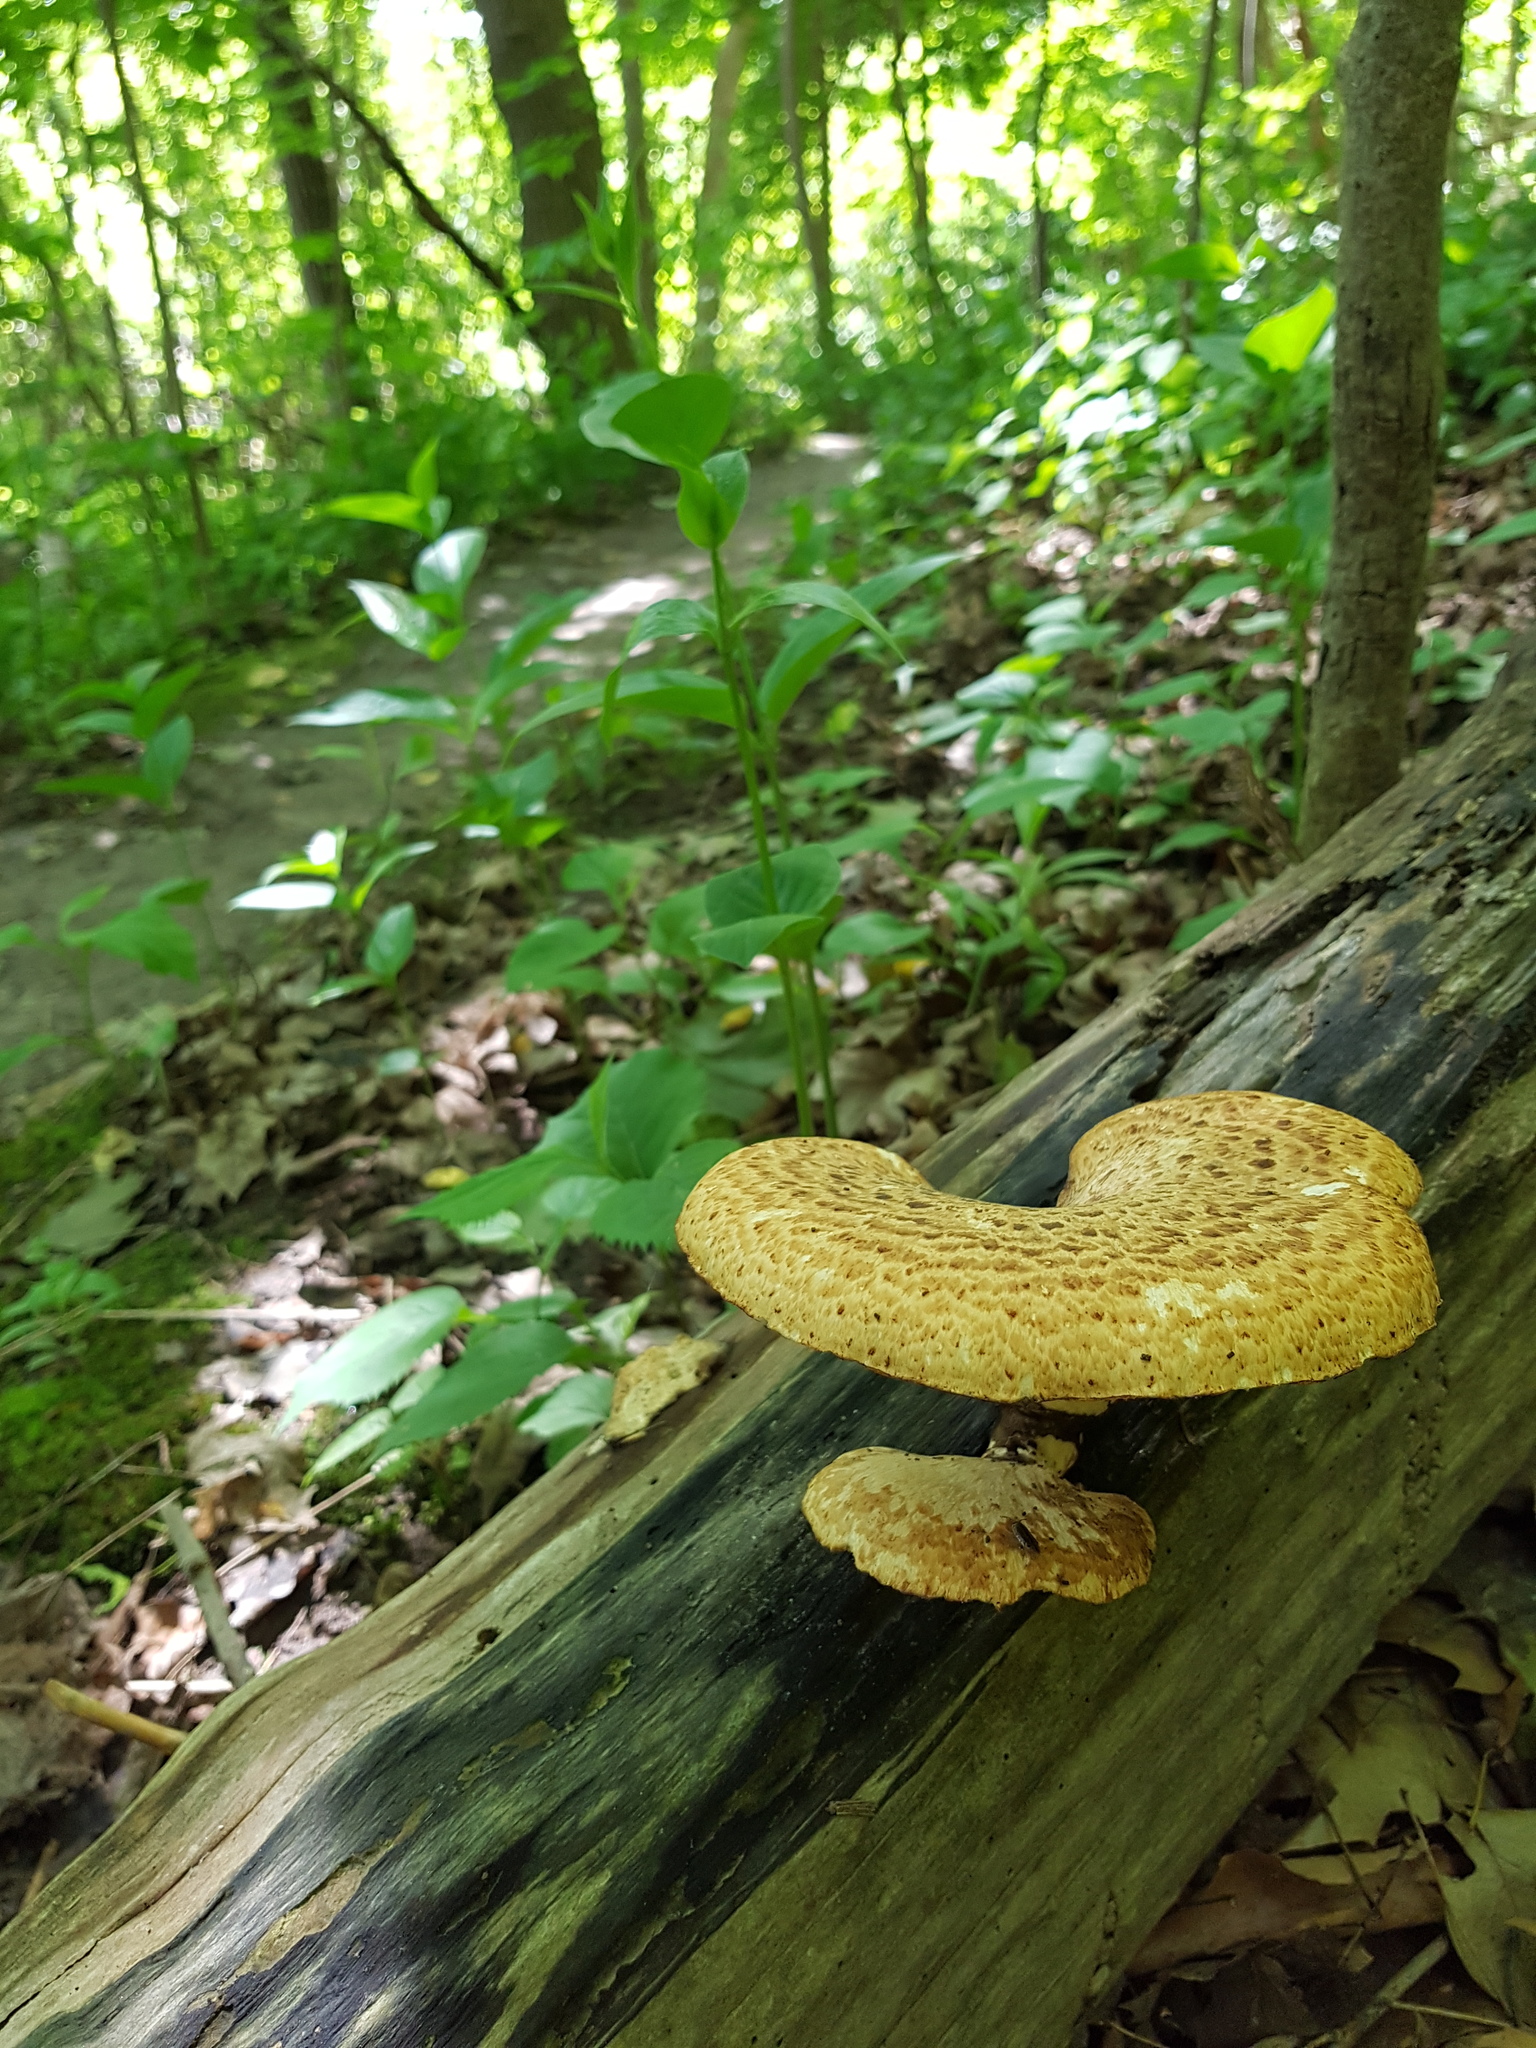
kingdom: Fungi
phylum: Basidiomycota
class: Agaricomycetes
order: Polyporales
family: Polyporaceae
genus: Cerioporus
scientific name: Cerioporus squamosus
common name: Dryad's saddle
